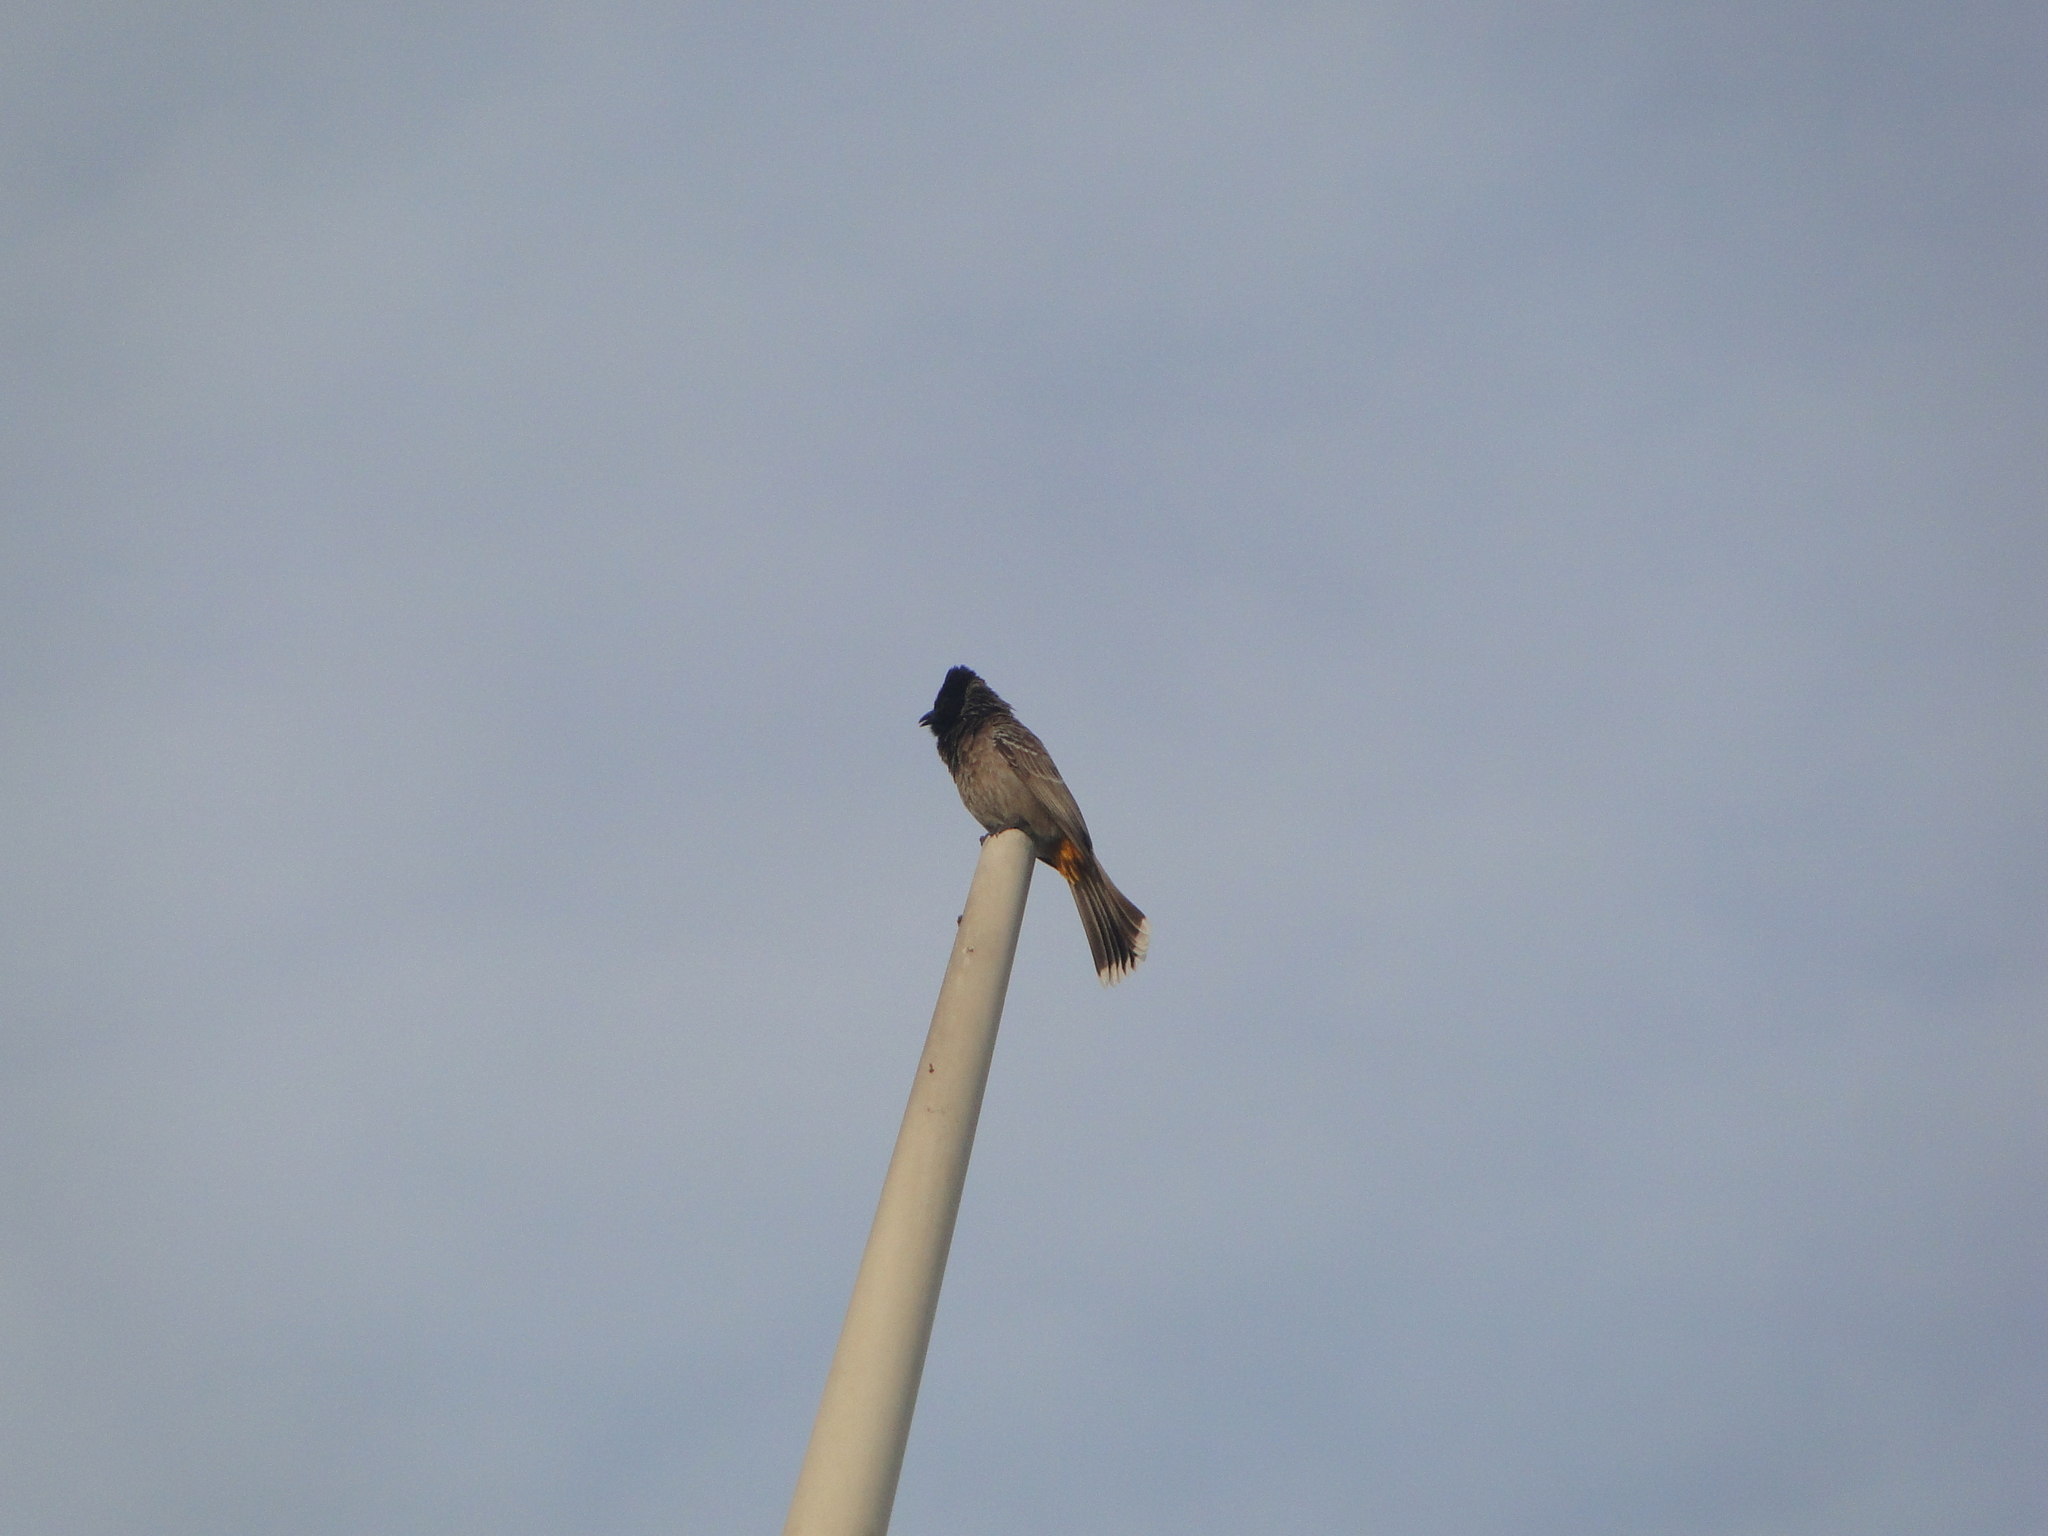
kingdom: Animalia
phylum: Chordata
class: Aves
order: Passeriformes
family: Pycnonotidae
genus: Pycnonotus
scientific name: Pycnonotus cafer
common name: Red-vented bulbul
